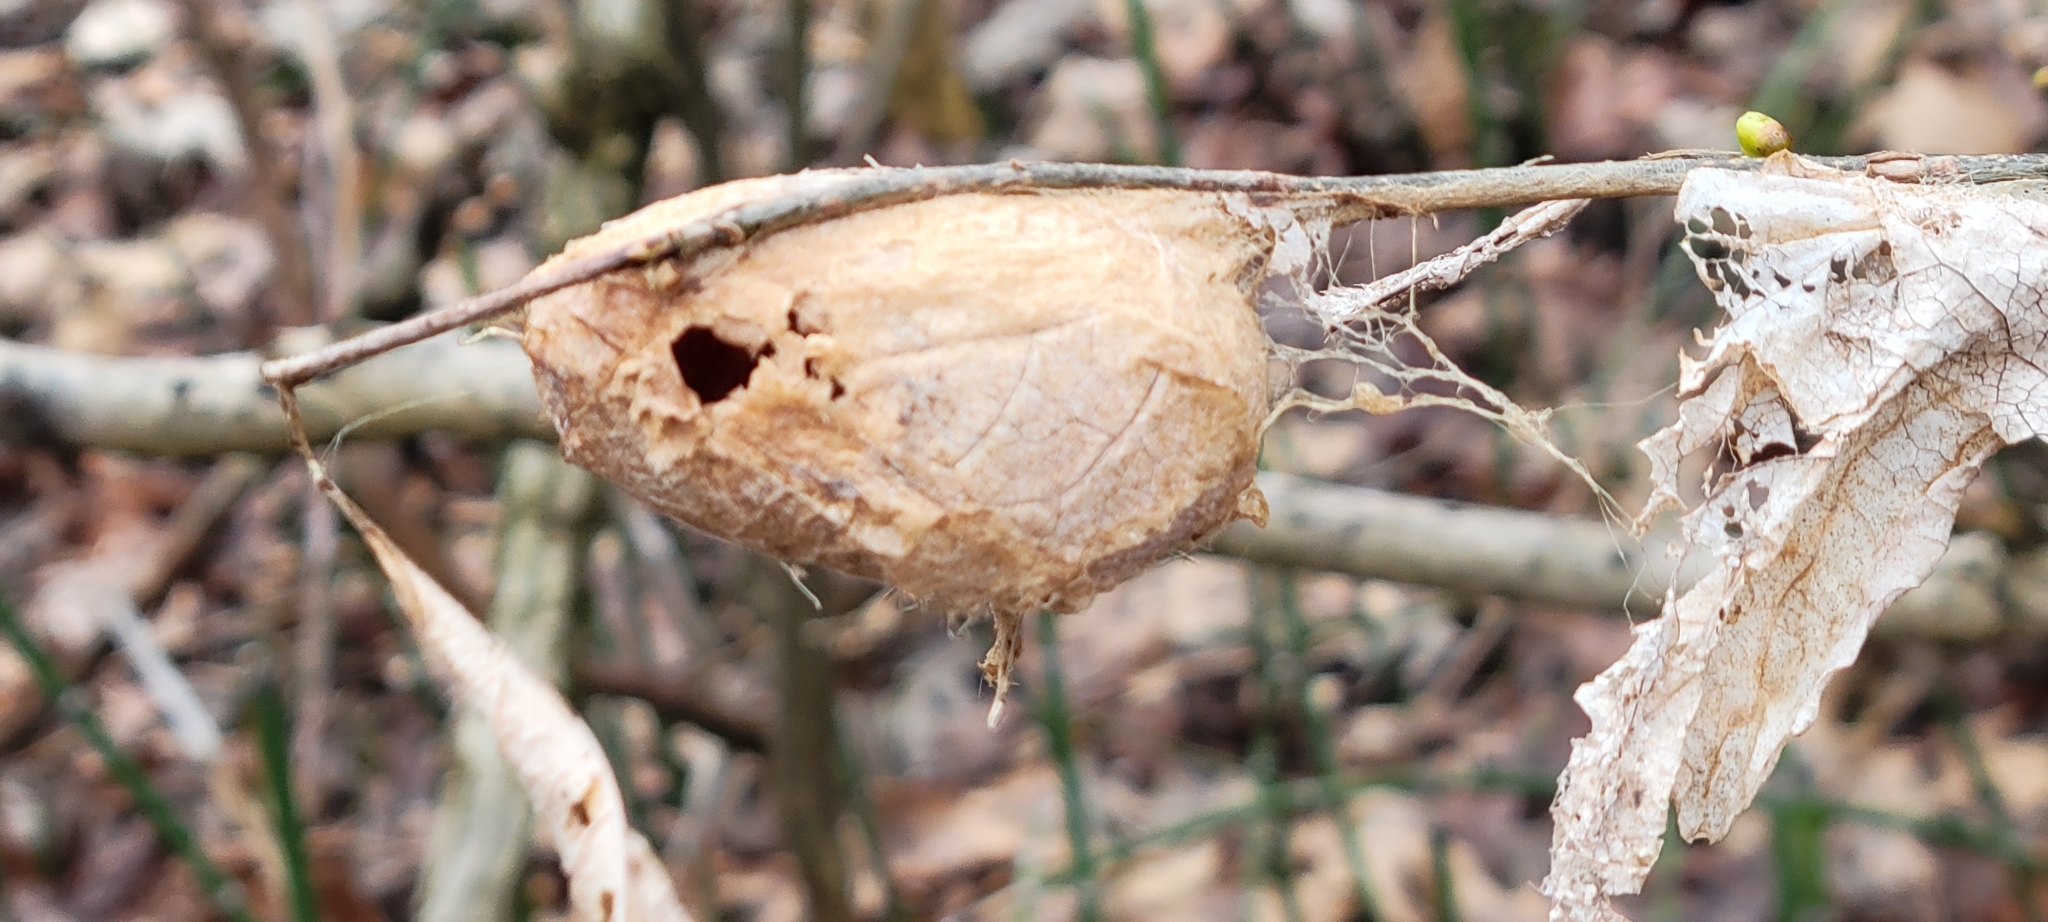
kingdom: Animalia
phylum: Arthropoda
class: Insecta
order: Lepidoptera
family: Saturniidae
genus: Antheraea
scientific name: Antheraea polyphemus
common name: Polyphemus moth
